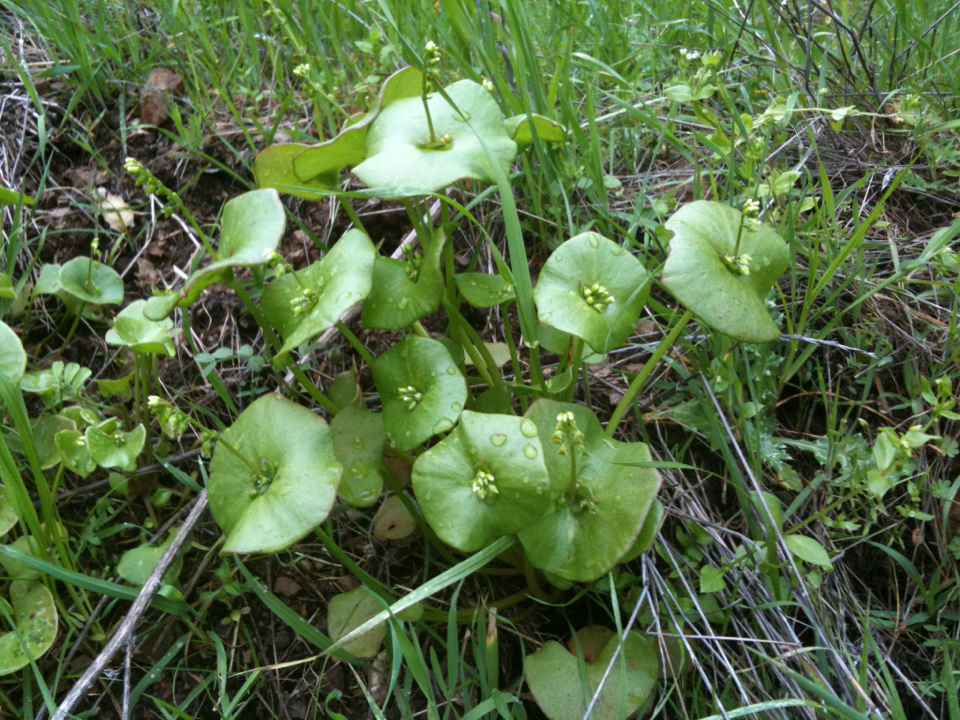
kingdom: Plantae
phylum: Tracheophyta
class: Magnoliopsida
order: Caryophyllales
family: Montiaceae
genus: Claytonia
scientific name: Claytonia perfoliata
